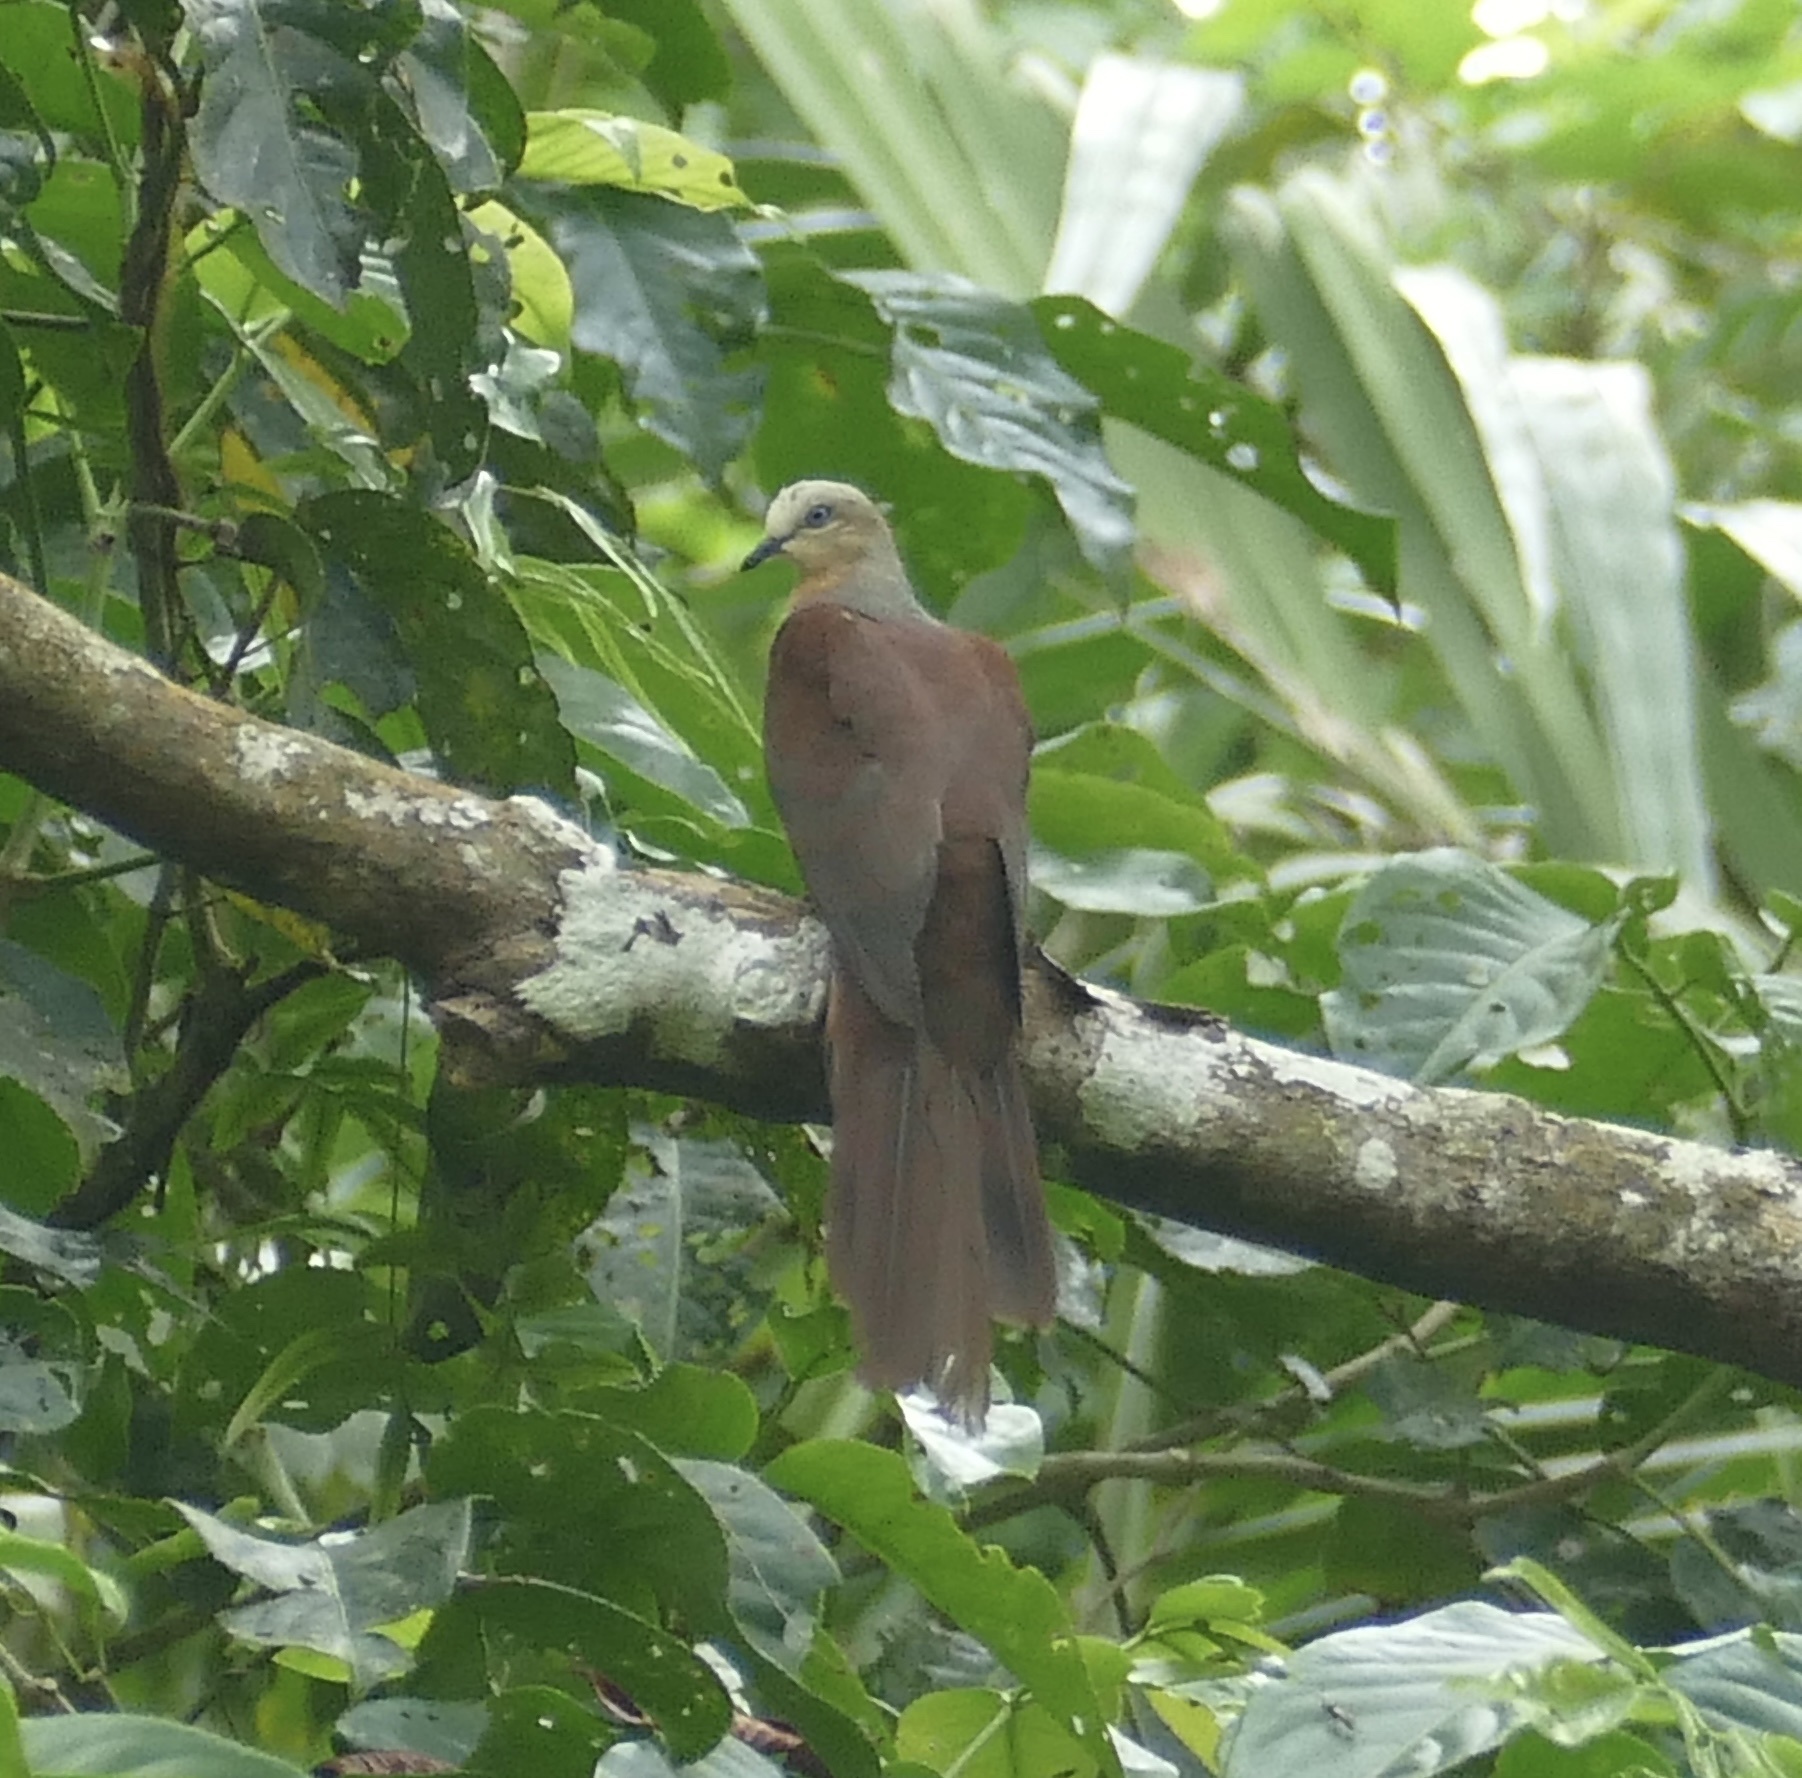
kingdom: Animalia
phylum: Chordata
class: Aves
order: Columbiformes
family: Columbidae
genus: Macropygia
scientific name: Macropygia doreya
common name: Sultan's cuckoo-dove
